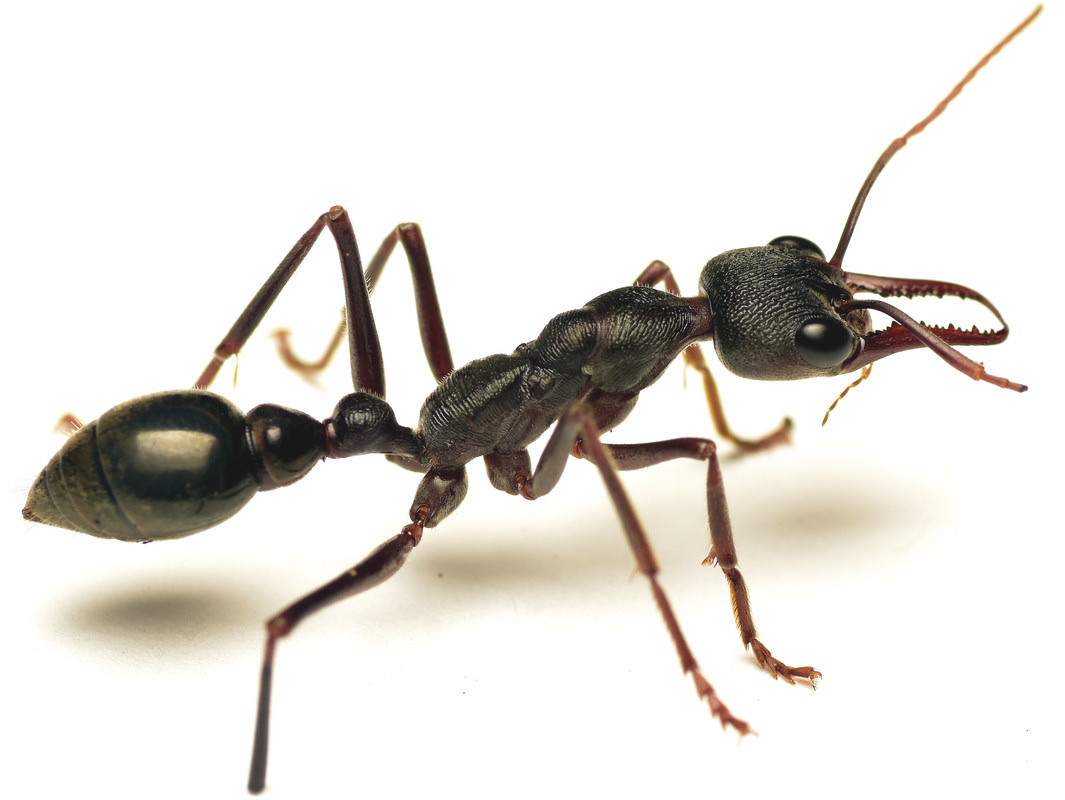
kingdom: Animalia
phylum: Arthropoda
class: Insecta
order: Hymenoptera
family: Formicidae
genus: Myrmecia
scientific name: Myrmecia pyriformis
